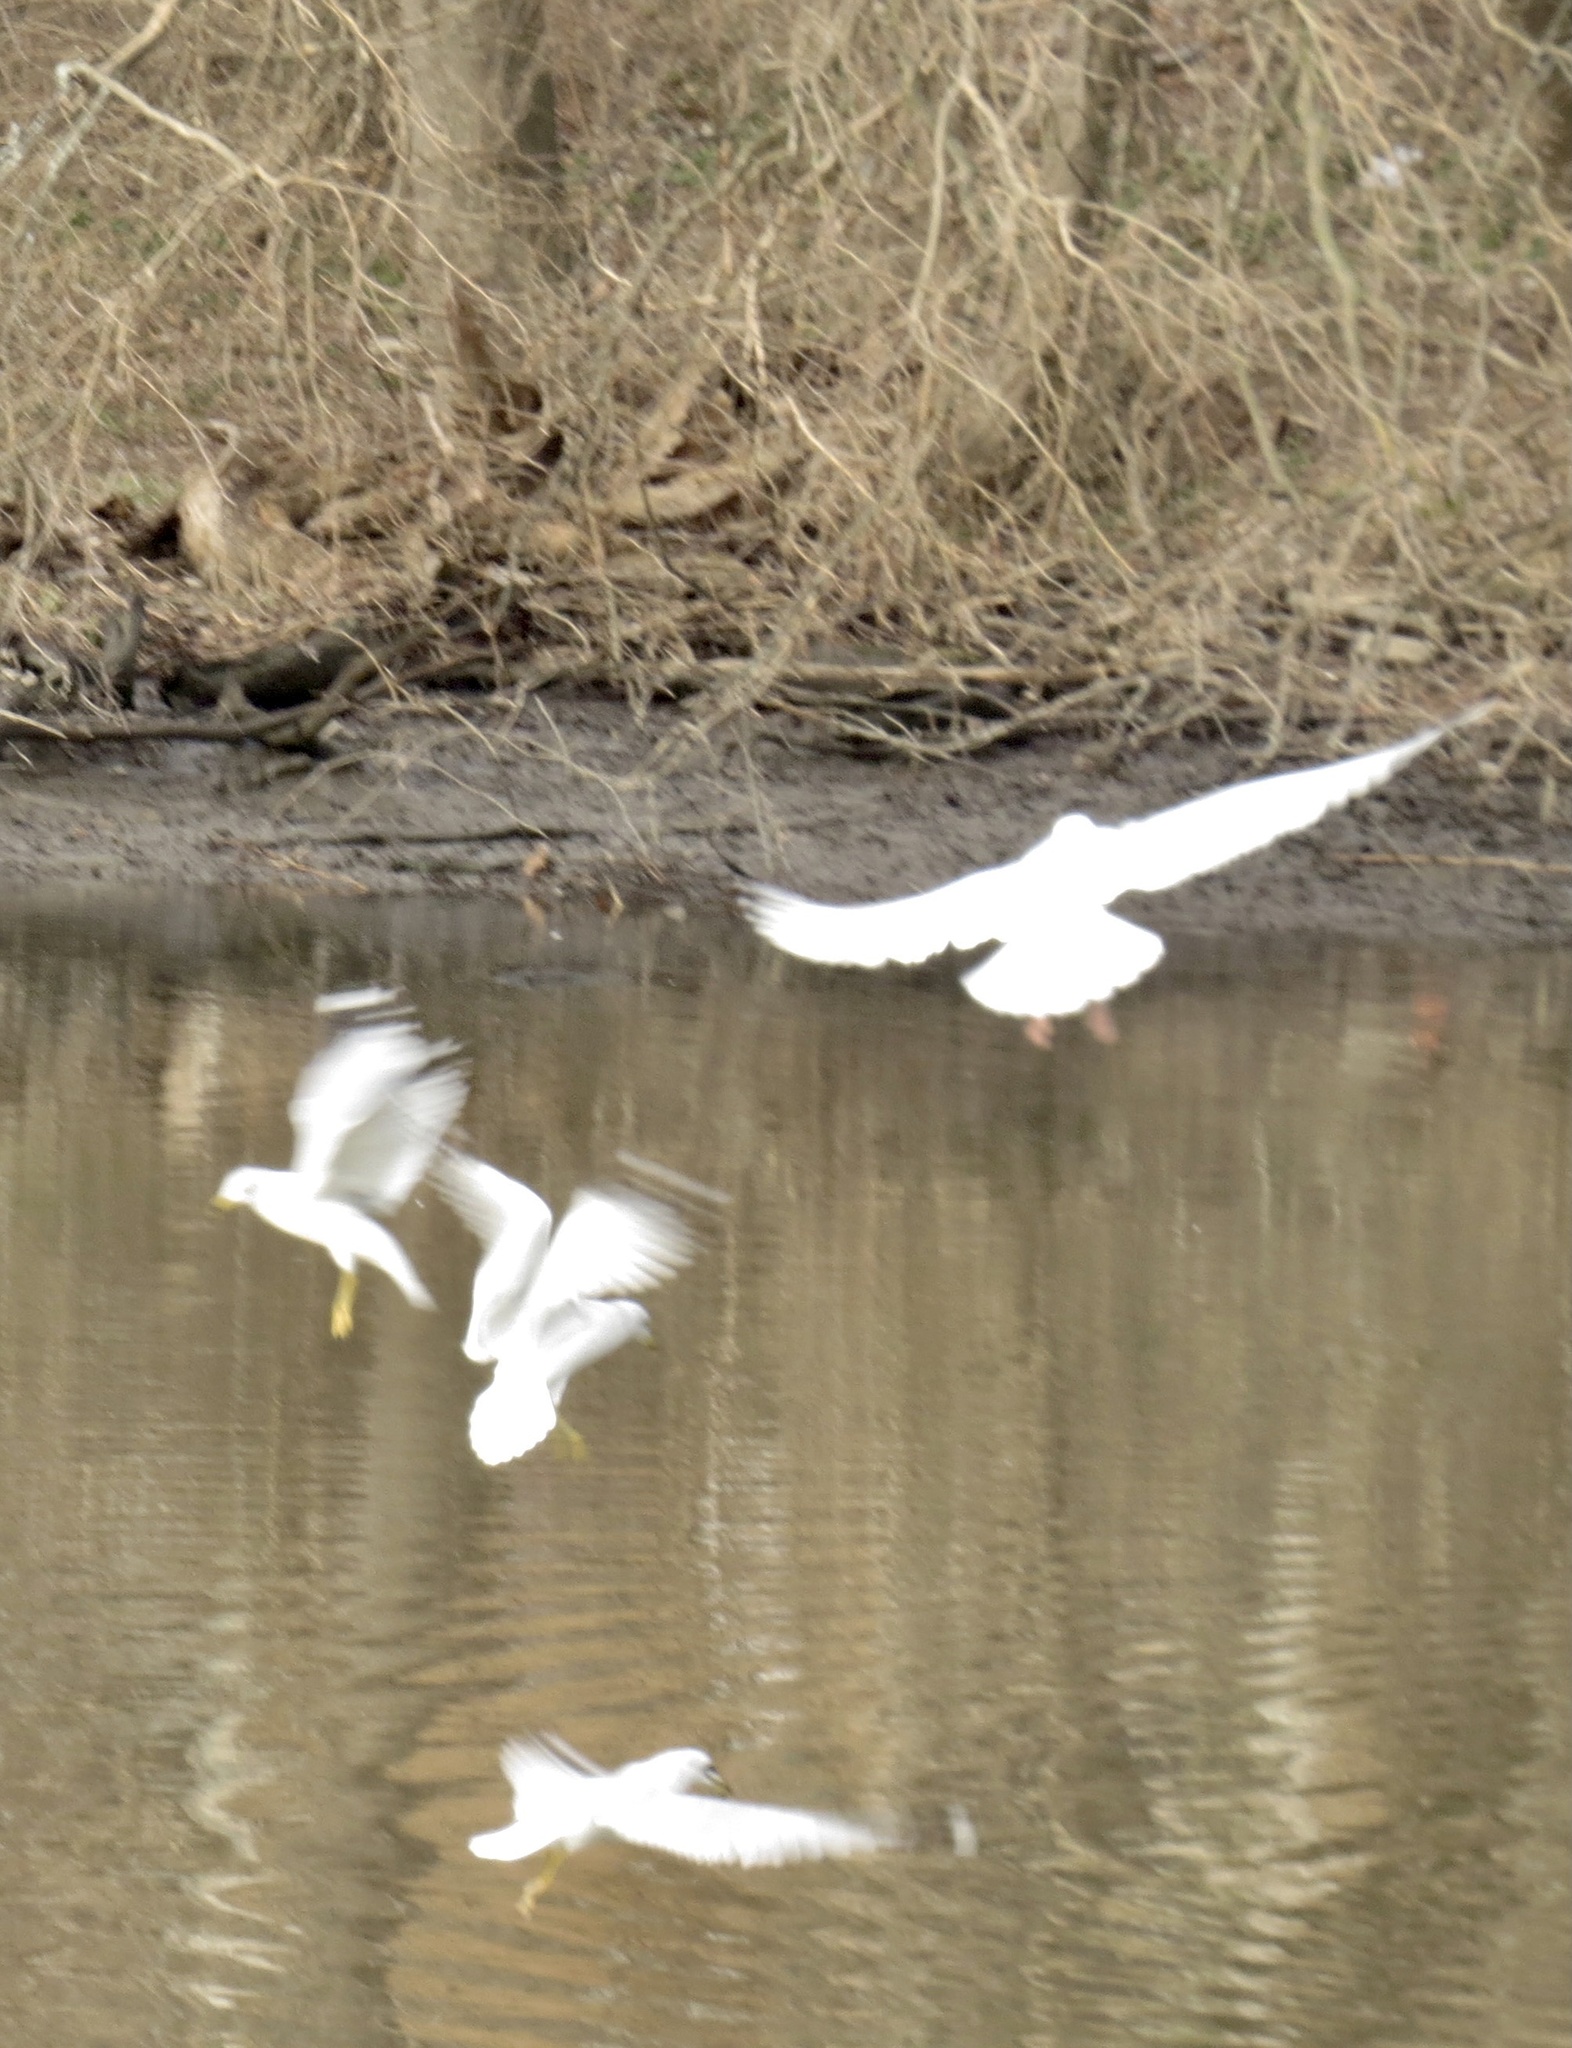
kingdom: Animalia
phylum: Chordata
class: Aves
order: Charadriiformes
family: Laridae
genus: Larus
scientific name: Larus delawarensis
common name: Ring-billed gull
